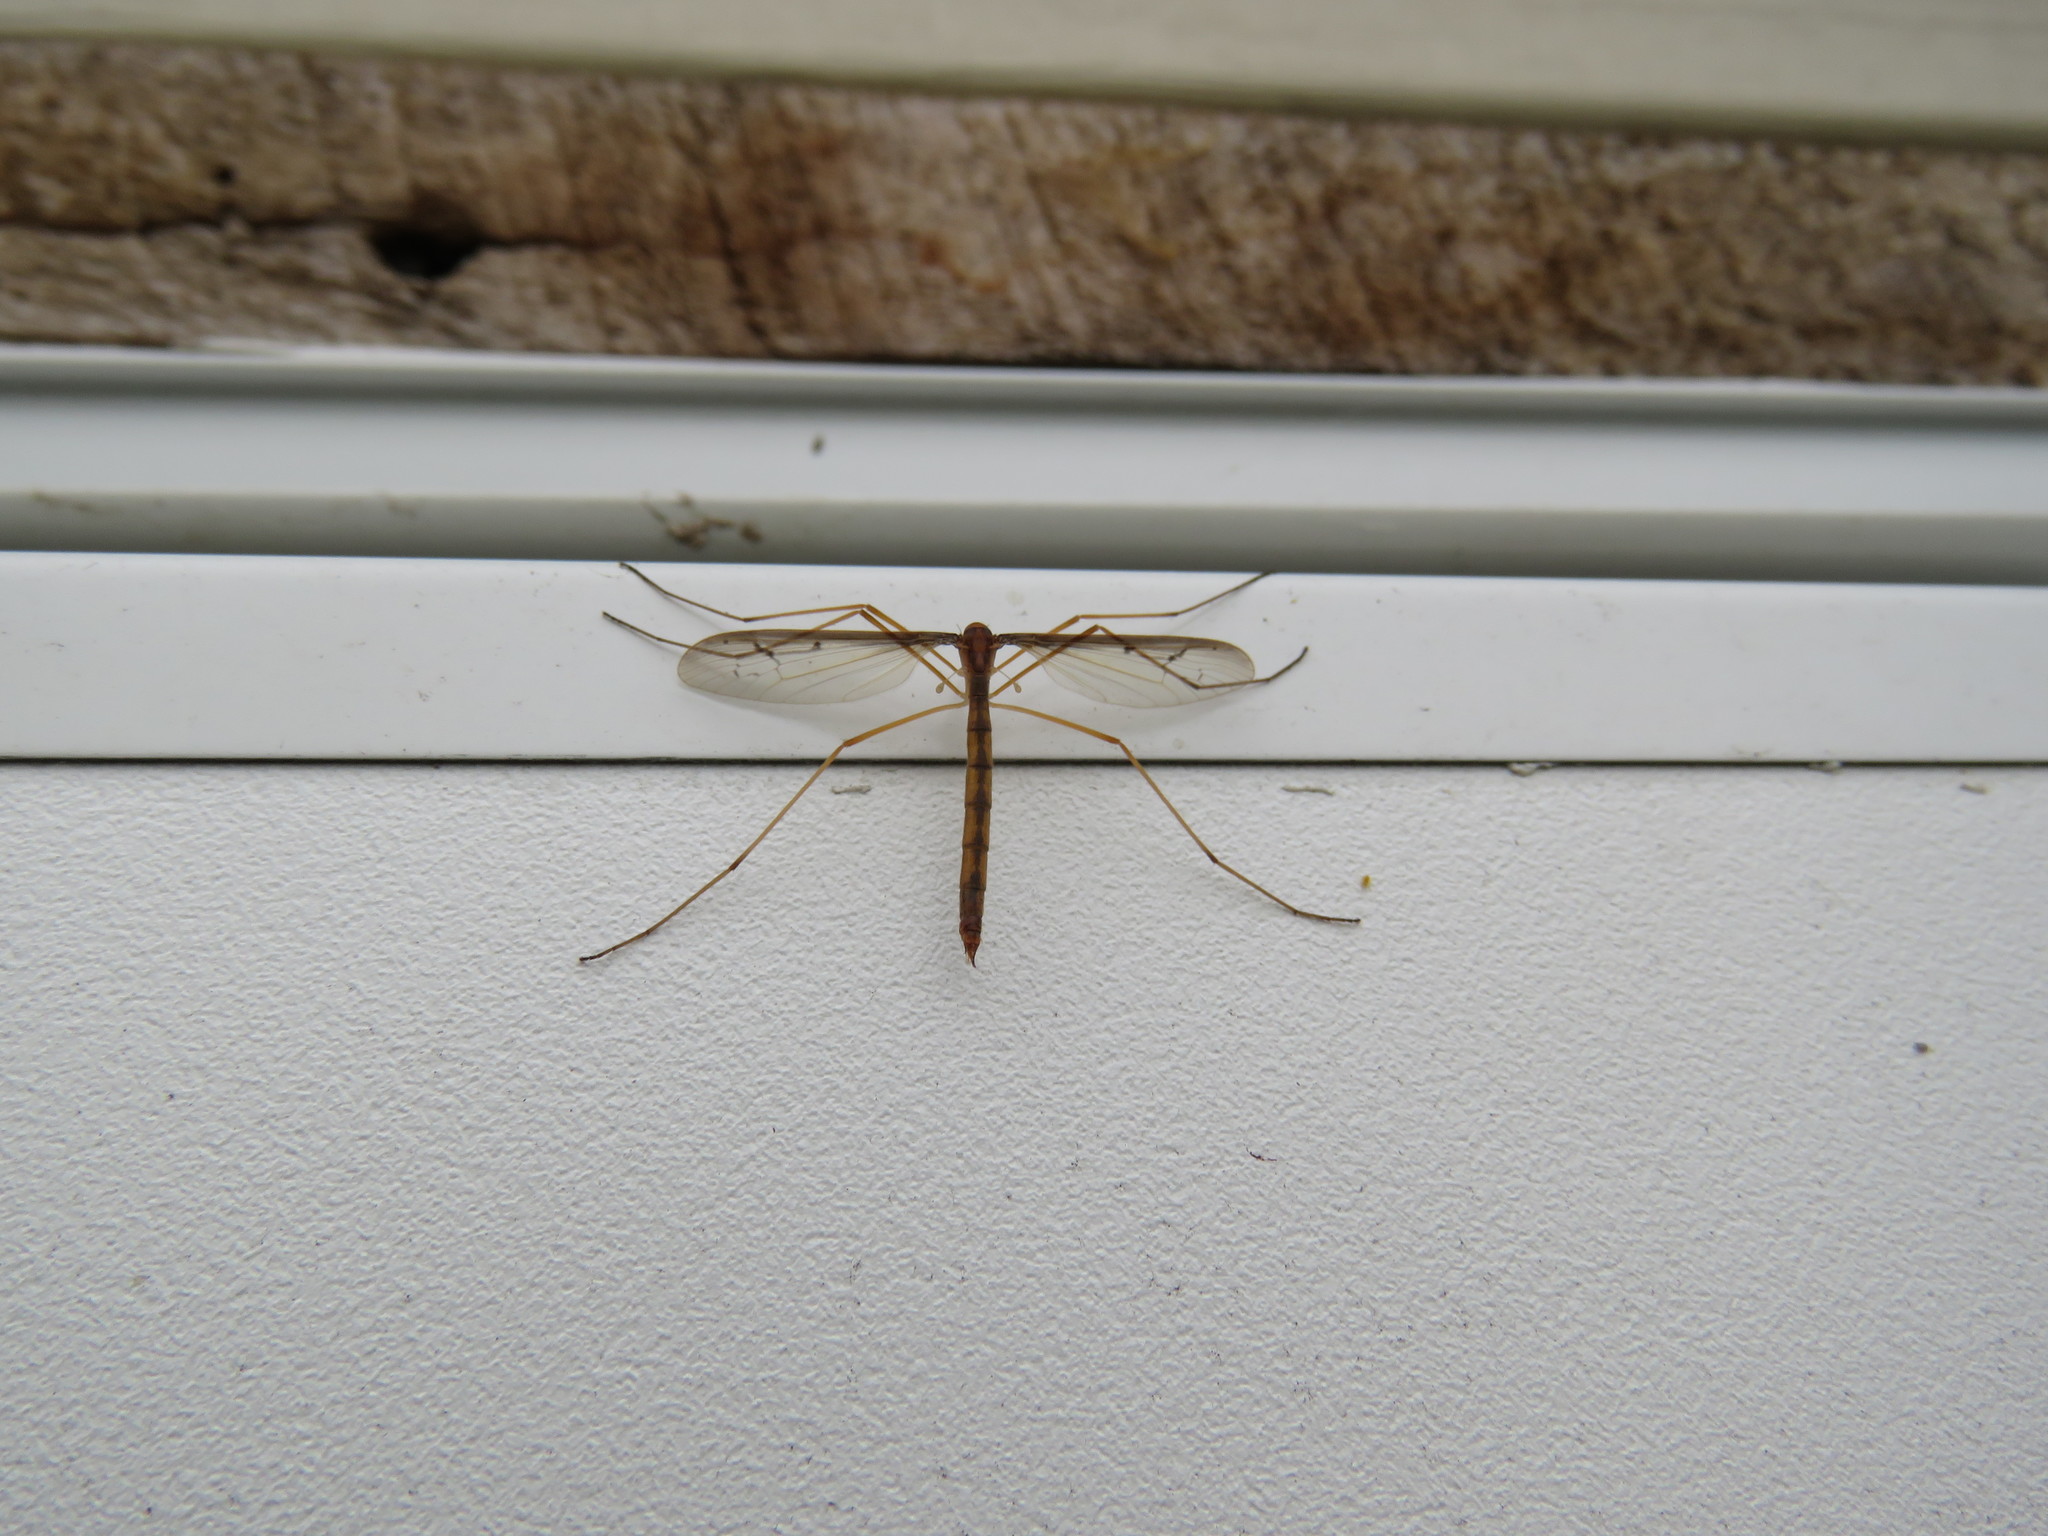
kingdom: Animalia
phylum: Arthropoda
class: Insecta
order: Diptera
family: Pediciidae
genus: Tricyphona
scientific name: Tricyphona inconstans
